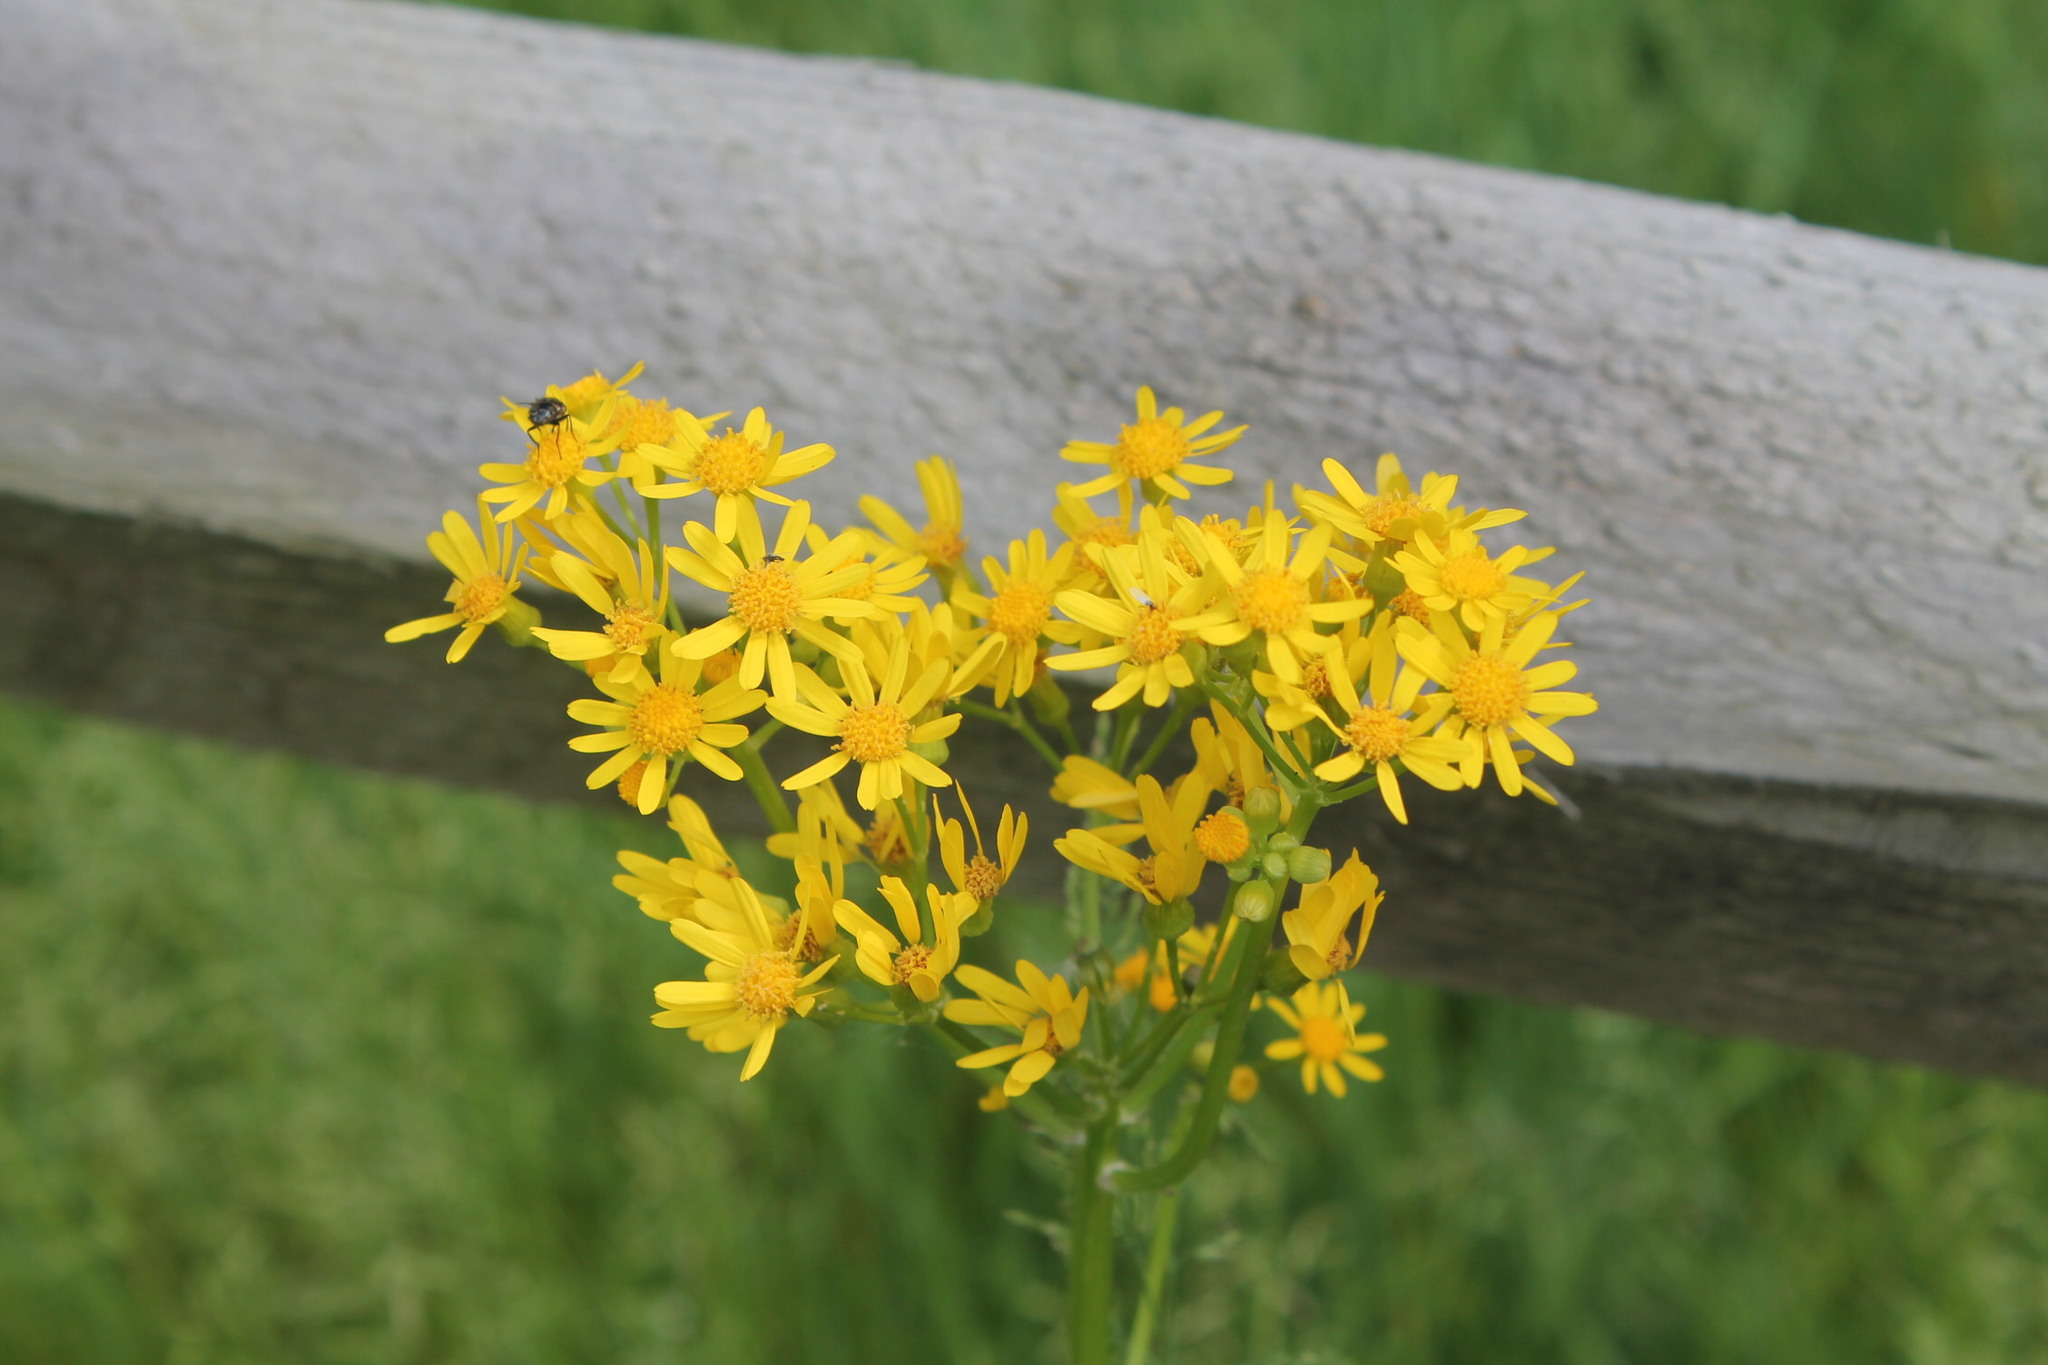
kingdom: Plantae
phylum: Tracheophyta
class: Magnoliopsida
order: Asterales
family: Asteraceae
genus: Packera
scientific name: Packera glabella
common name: Butterweed
